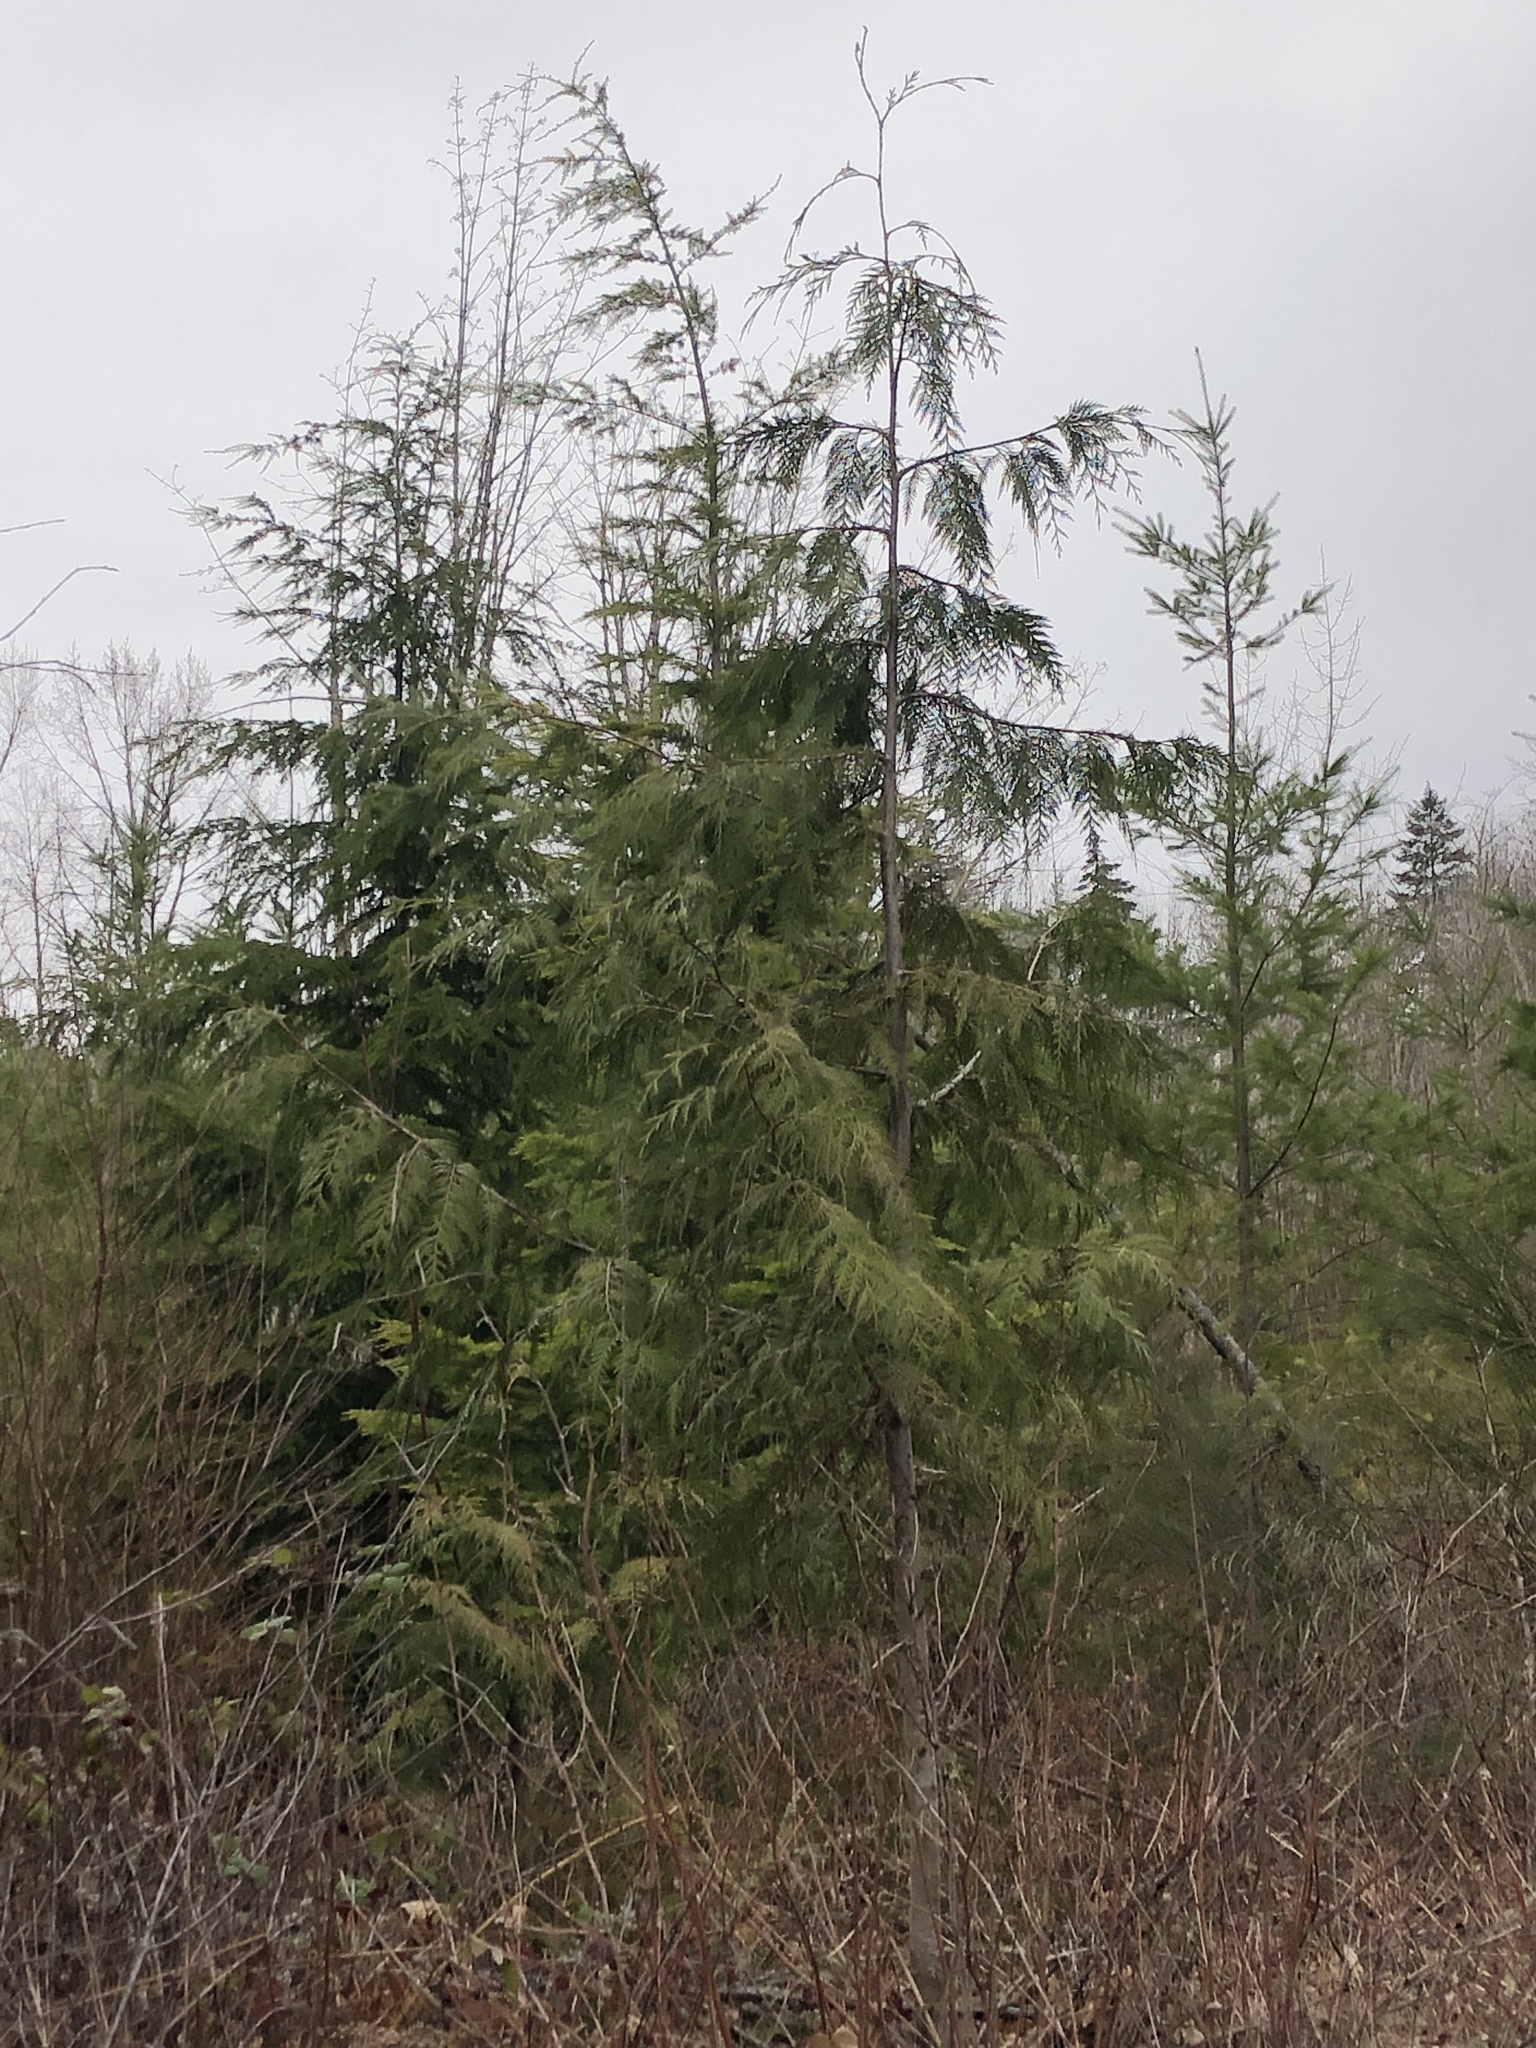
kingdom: Plantae
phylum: Tracheophyta
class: Pinopsida
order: Pinales
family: Pinaceae
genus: Tsuga
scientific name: Tsuga heterophylla
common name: Western hemlock
